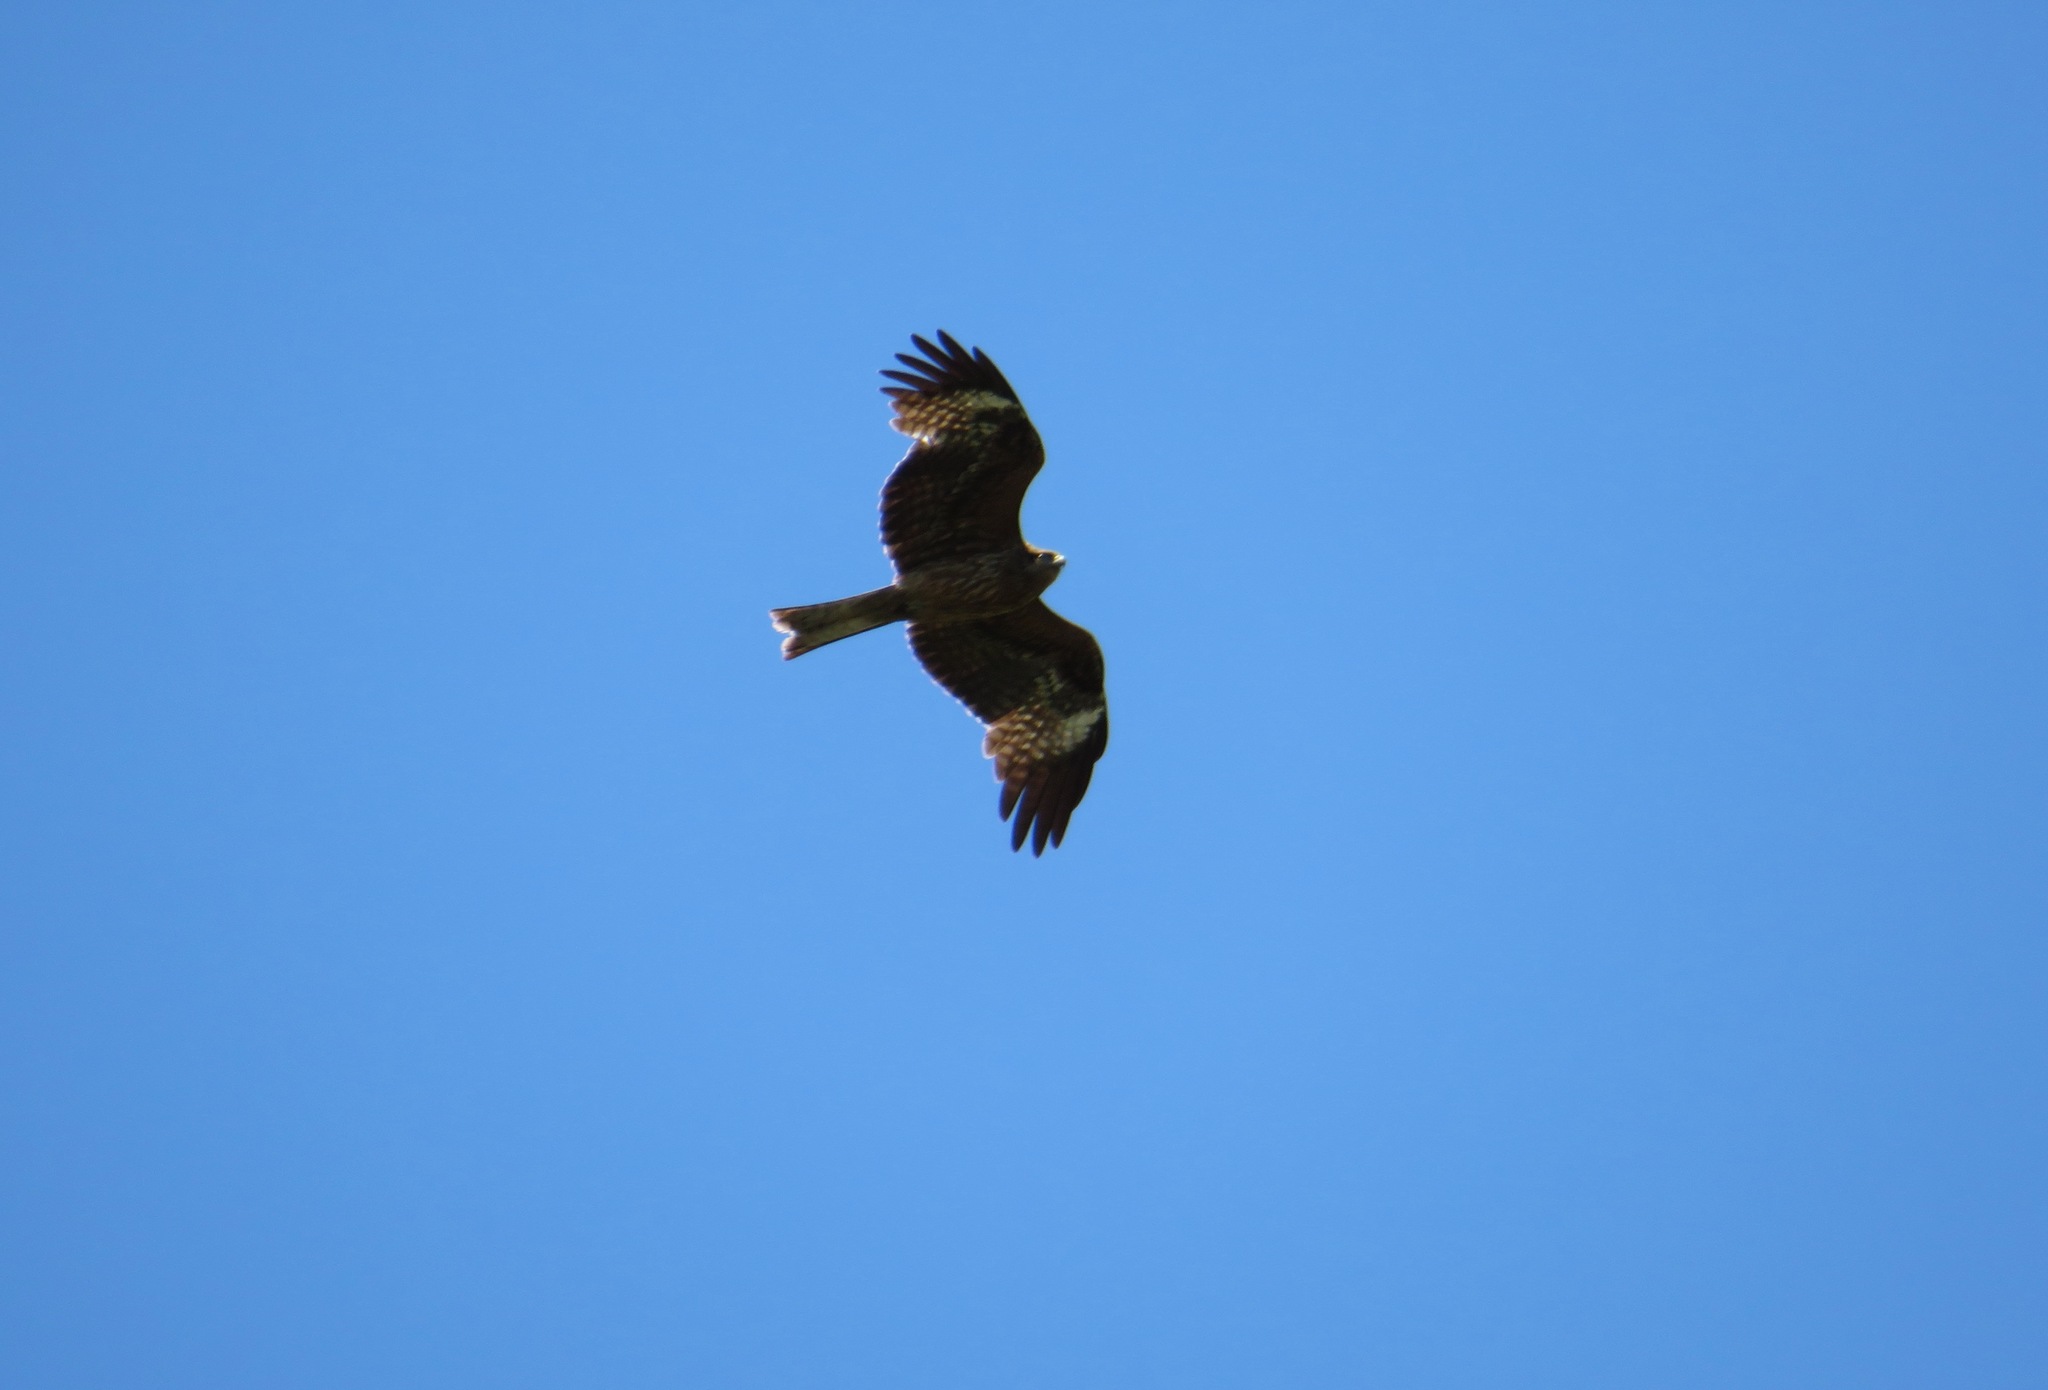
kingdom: Animalia
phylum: Chordata
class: Aves
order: Accipitriformes
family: Accipitridae
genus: Milvus
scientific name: Milvus migrans
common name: Black kite
